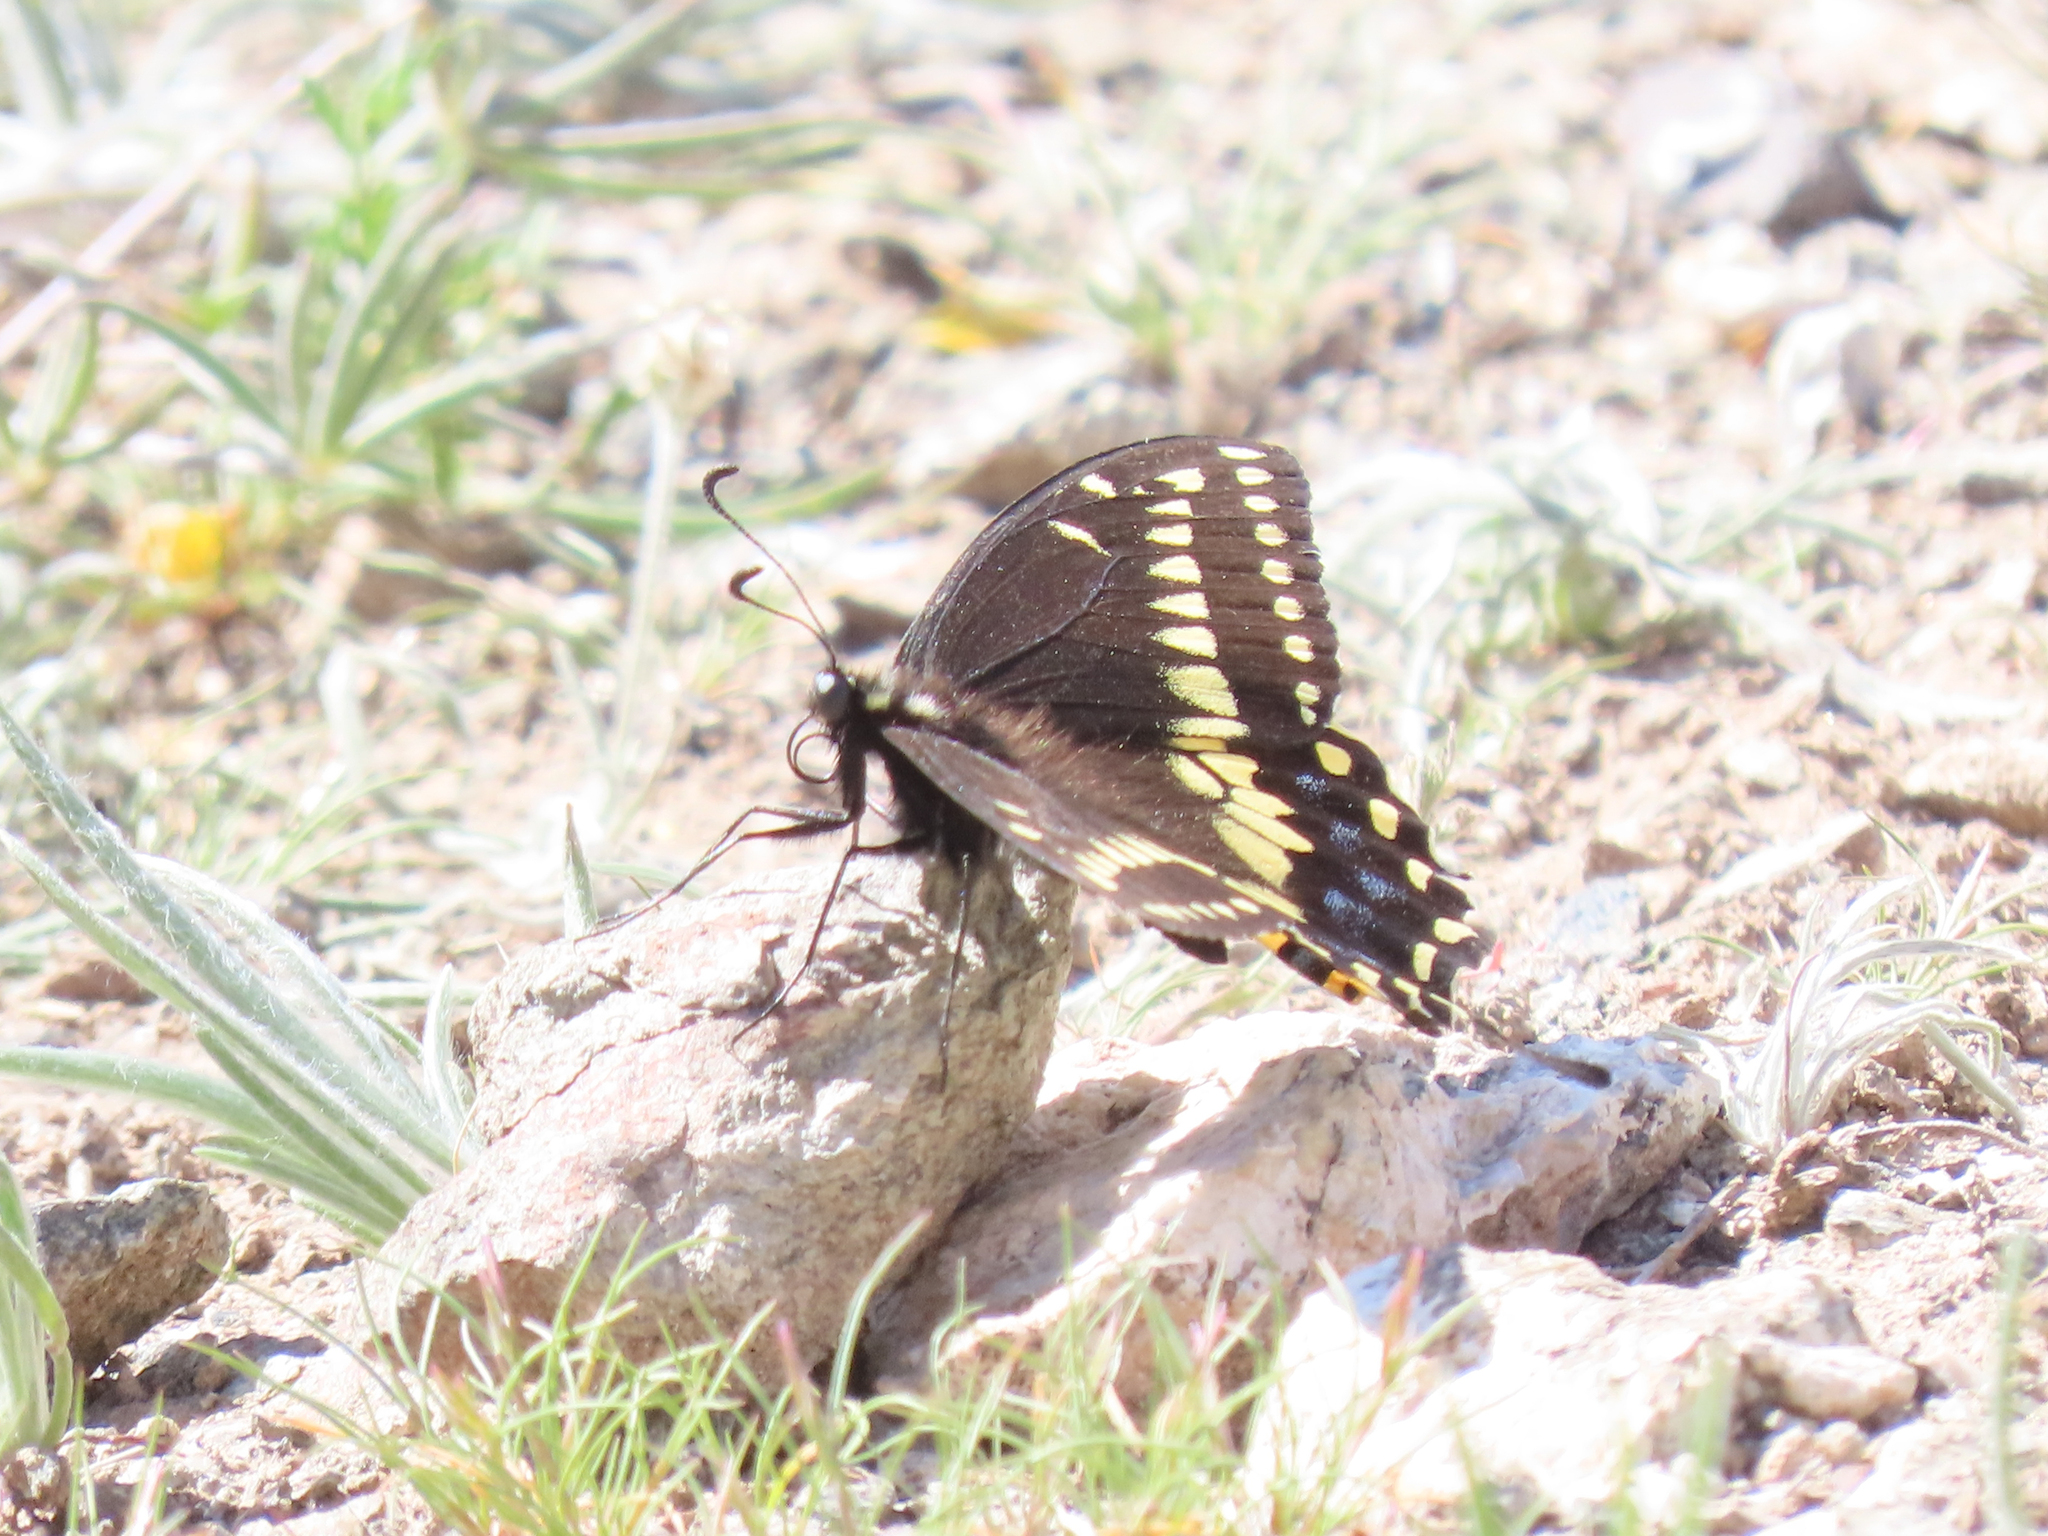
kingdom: Animalia
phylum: Arthropoda
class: Insecta
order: Lepidoptera
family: Papilionidae
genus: Papilio
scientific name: Papilio polyxenes
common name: Black swallowtail
